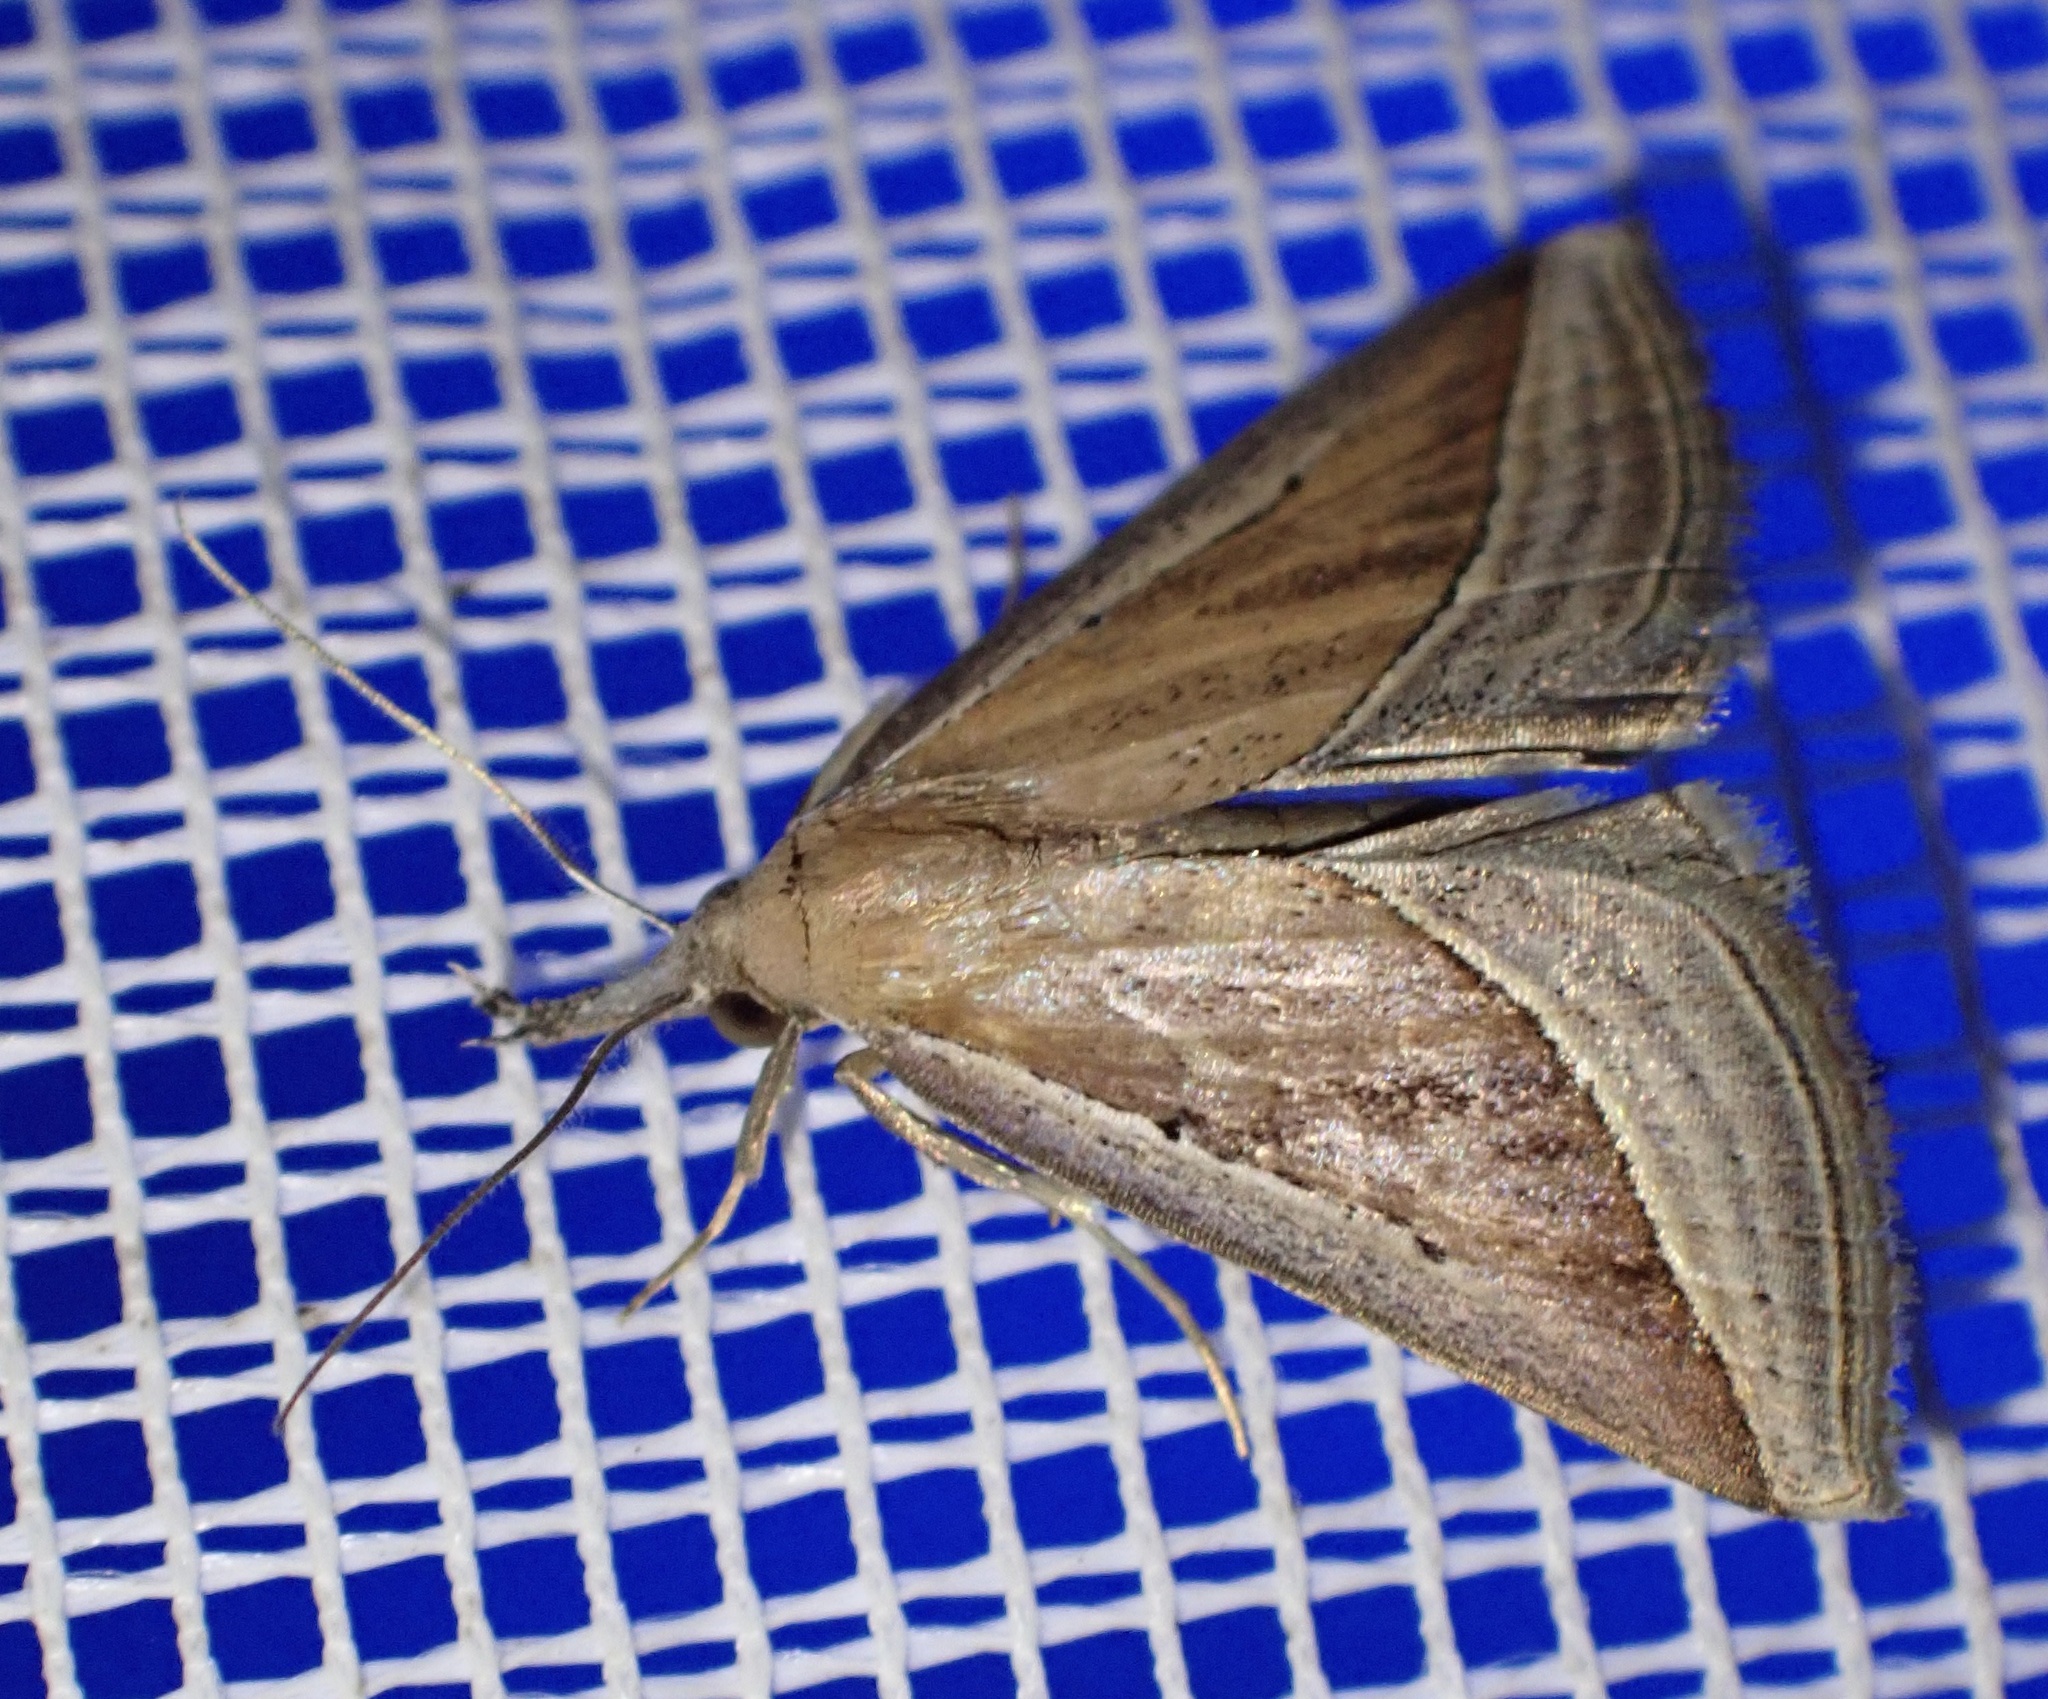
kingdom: Animalia
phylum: Arthropoda
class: Insecta
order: Lepidoptera
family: Erebidae
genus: Hypena
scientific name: Hypena conscitalis
